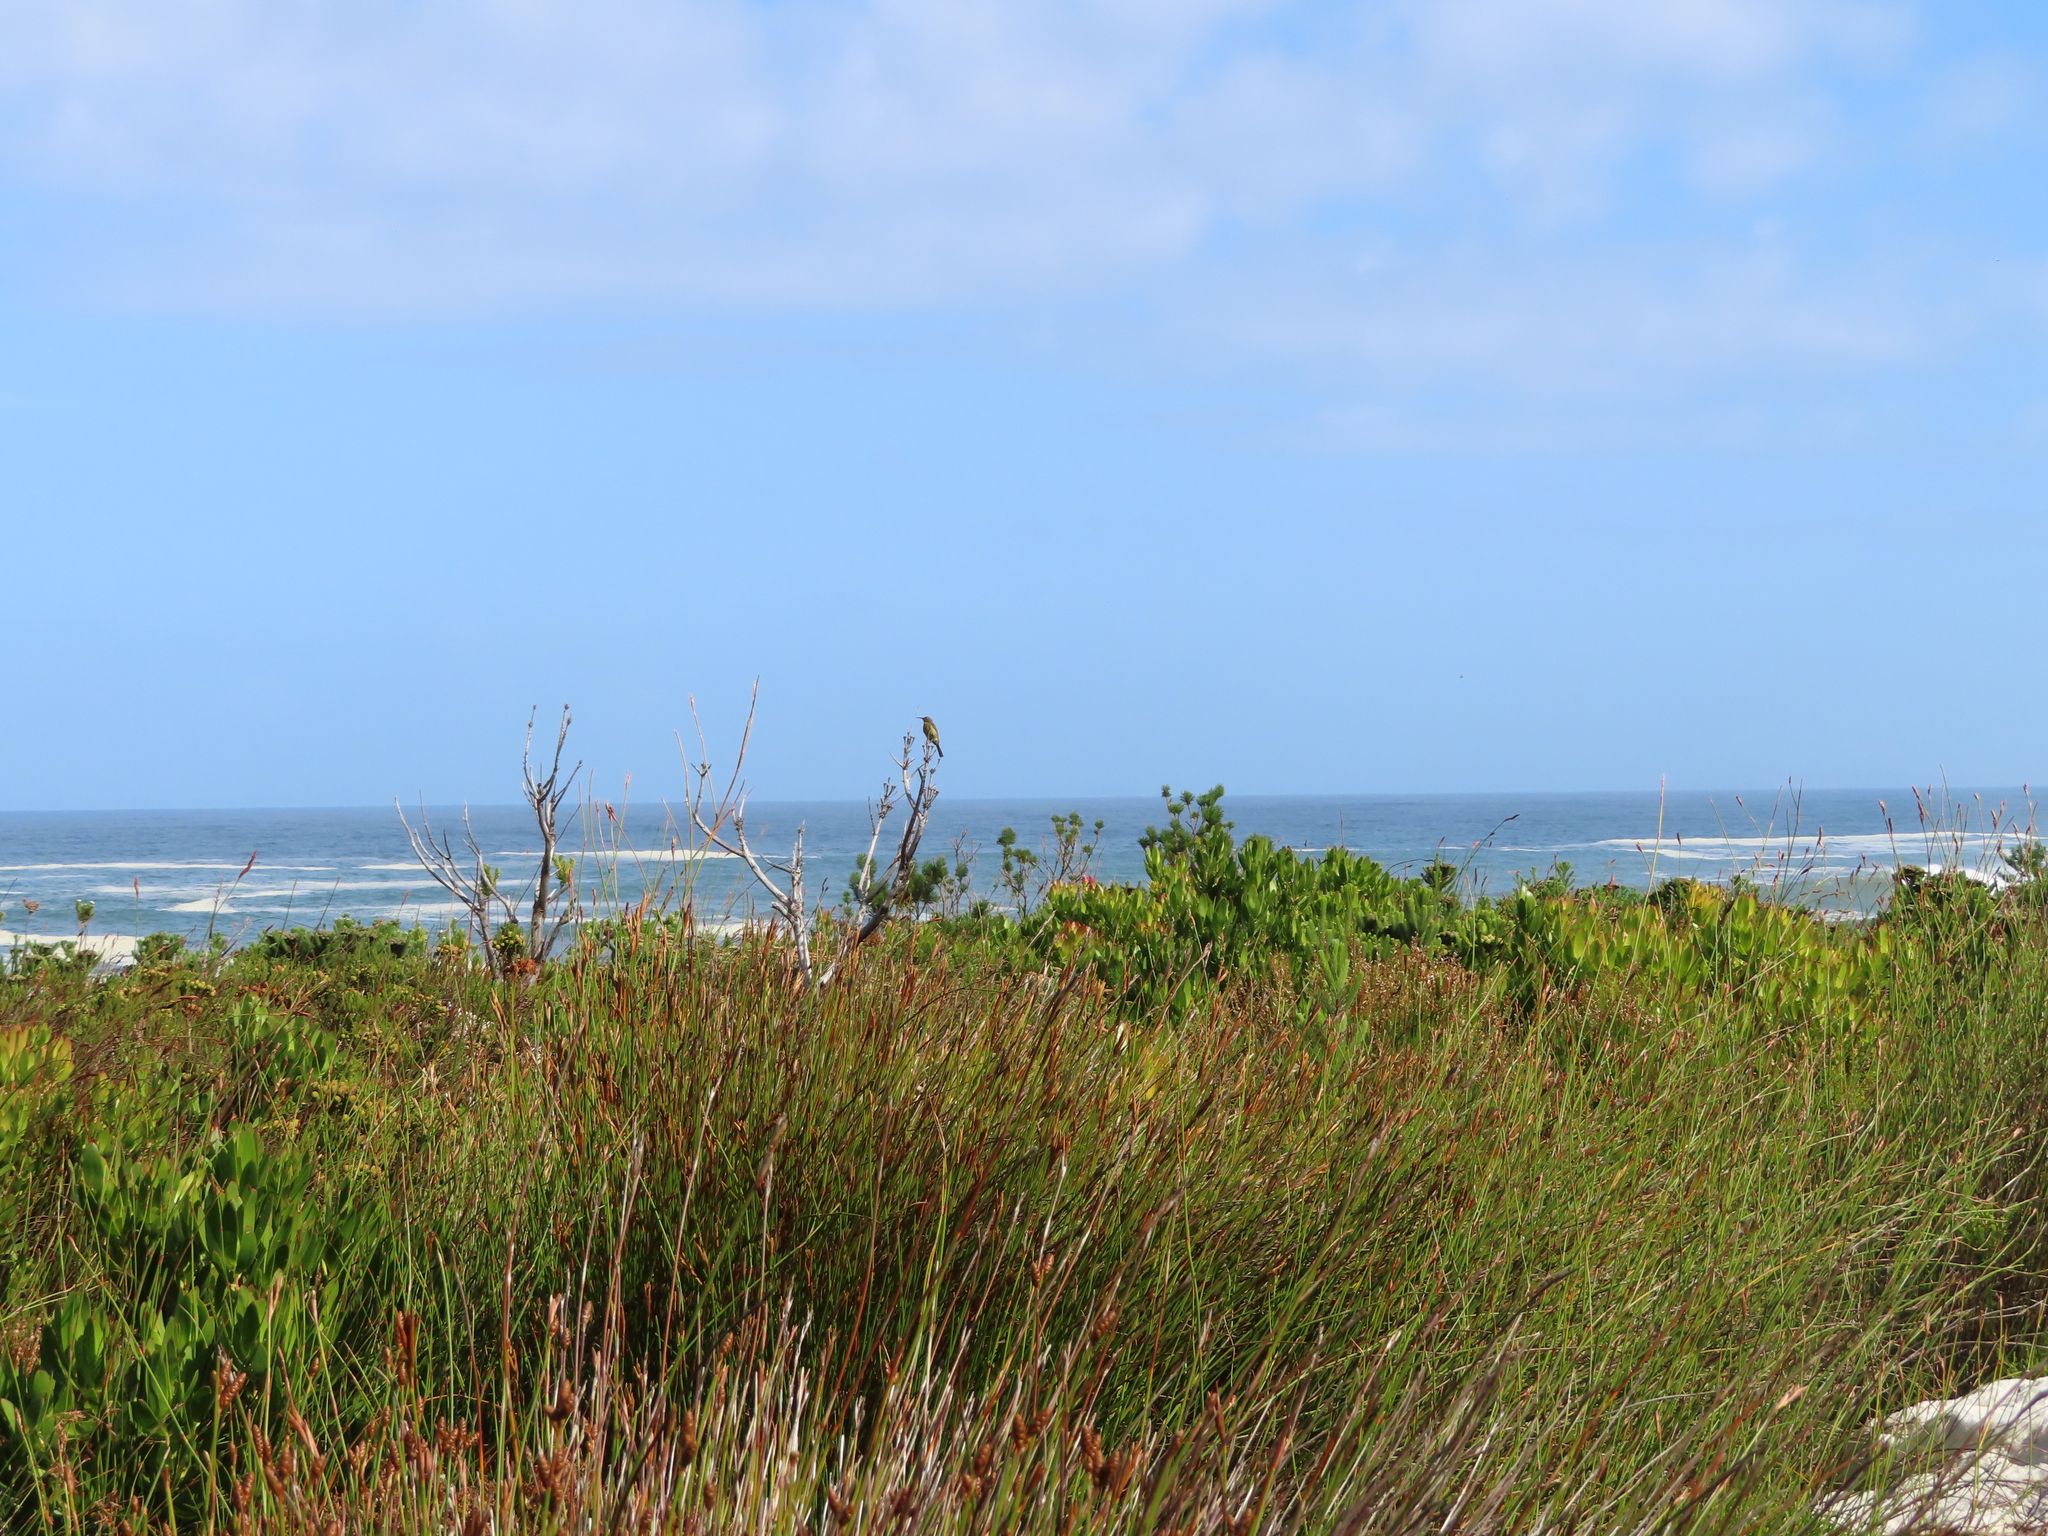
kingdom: Animalia
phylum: Chordata
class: Aves
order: Passeriformes
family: Promeropidae
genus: Promerops
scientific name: Promerops cafer
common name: Cape sugarbird
